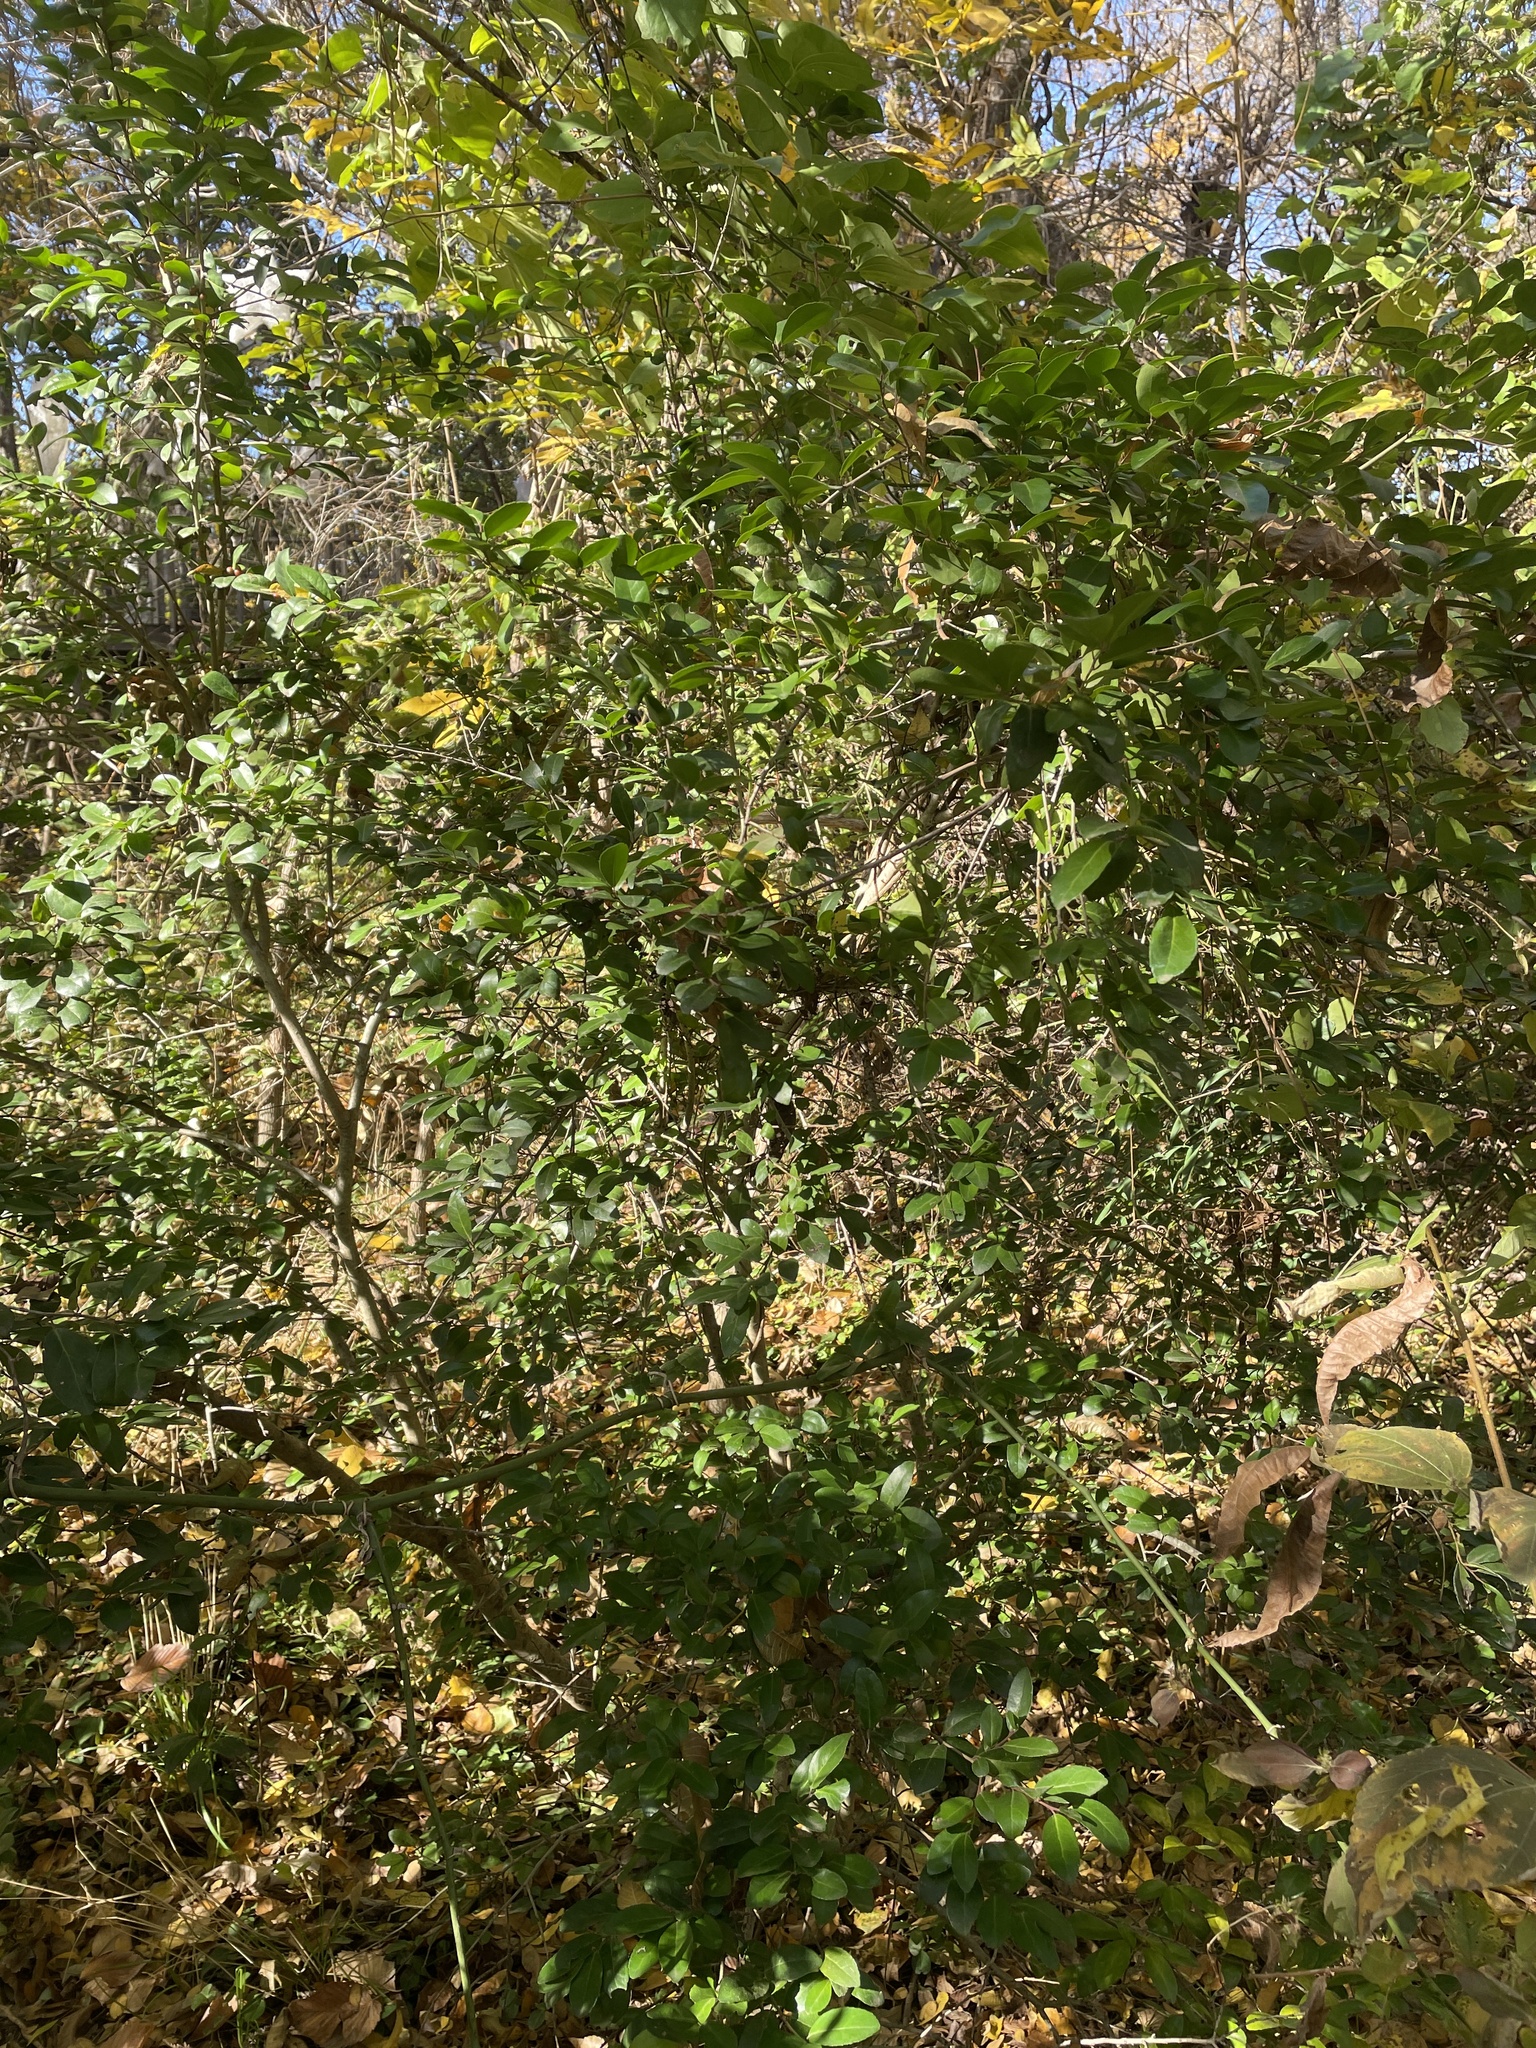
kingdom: Plantae
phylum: Tracheophyta
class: Magnoliopsida
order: Aquifoliales
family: Aquifoliaceae
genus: Ilex
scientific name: Ilex vomitoria
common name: Yaupon holly
